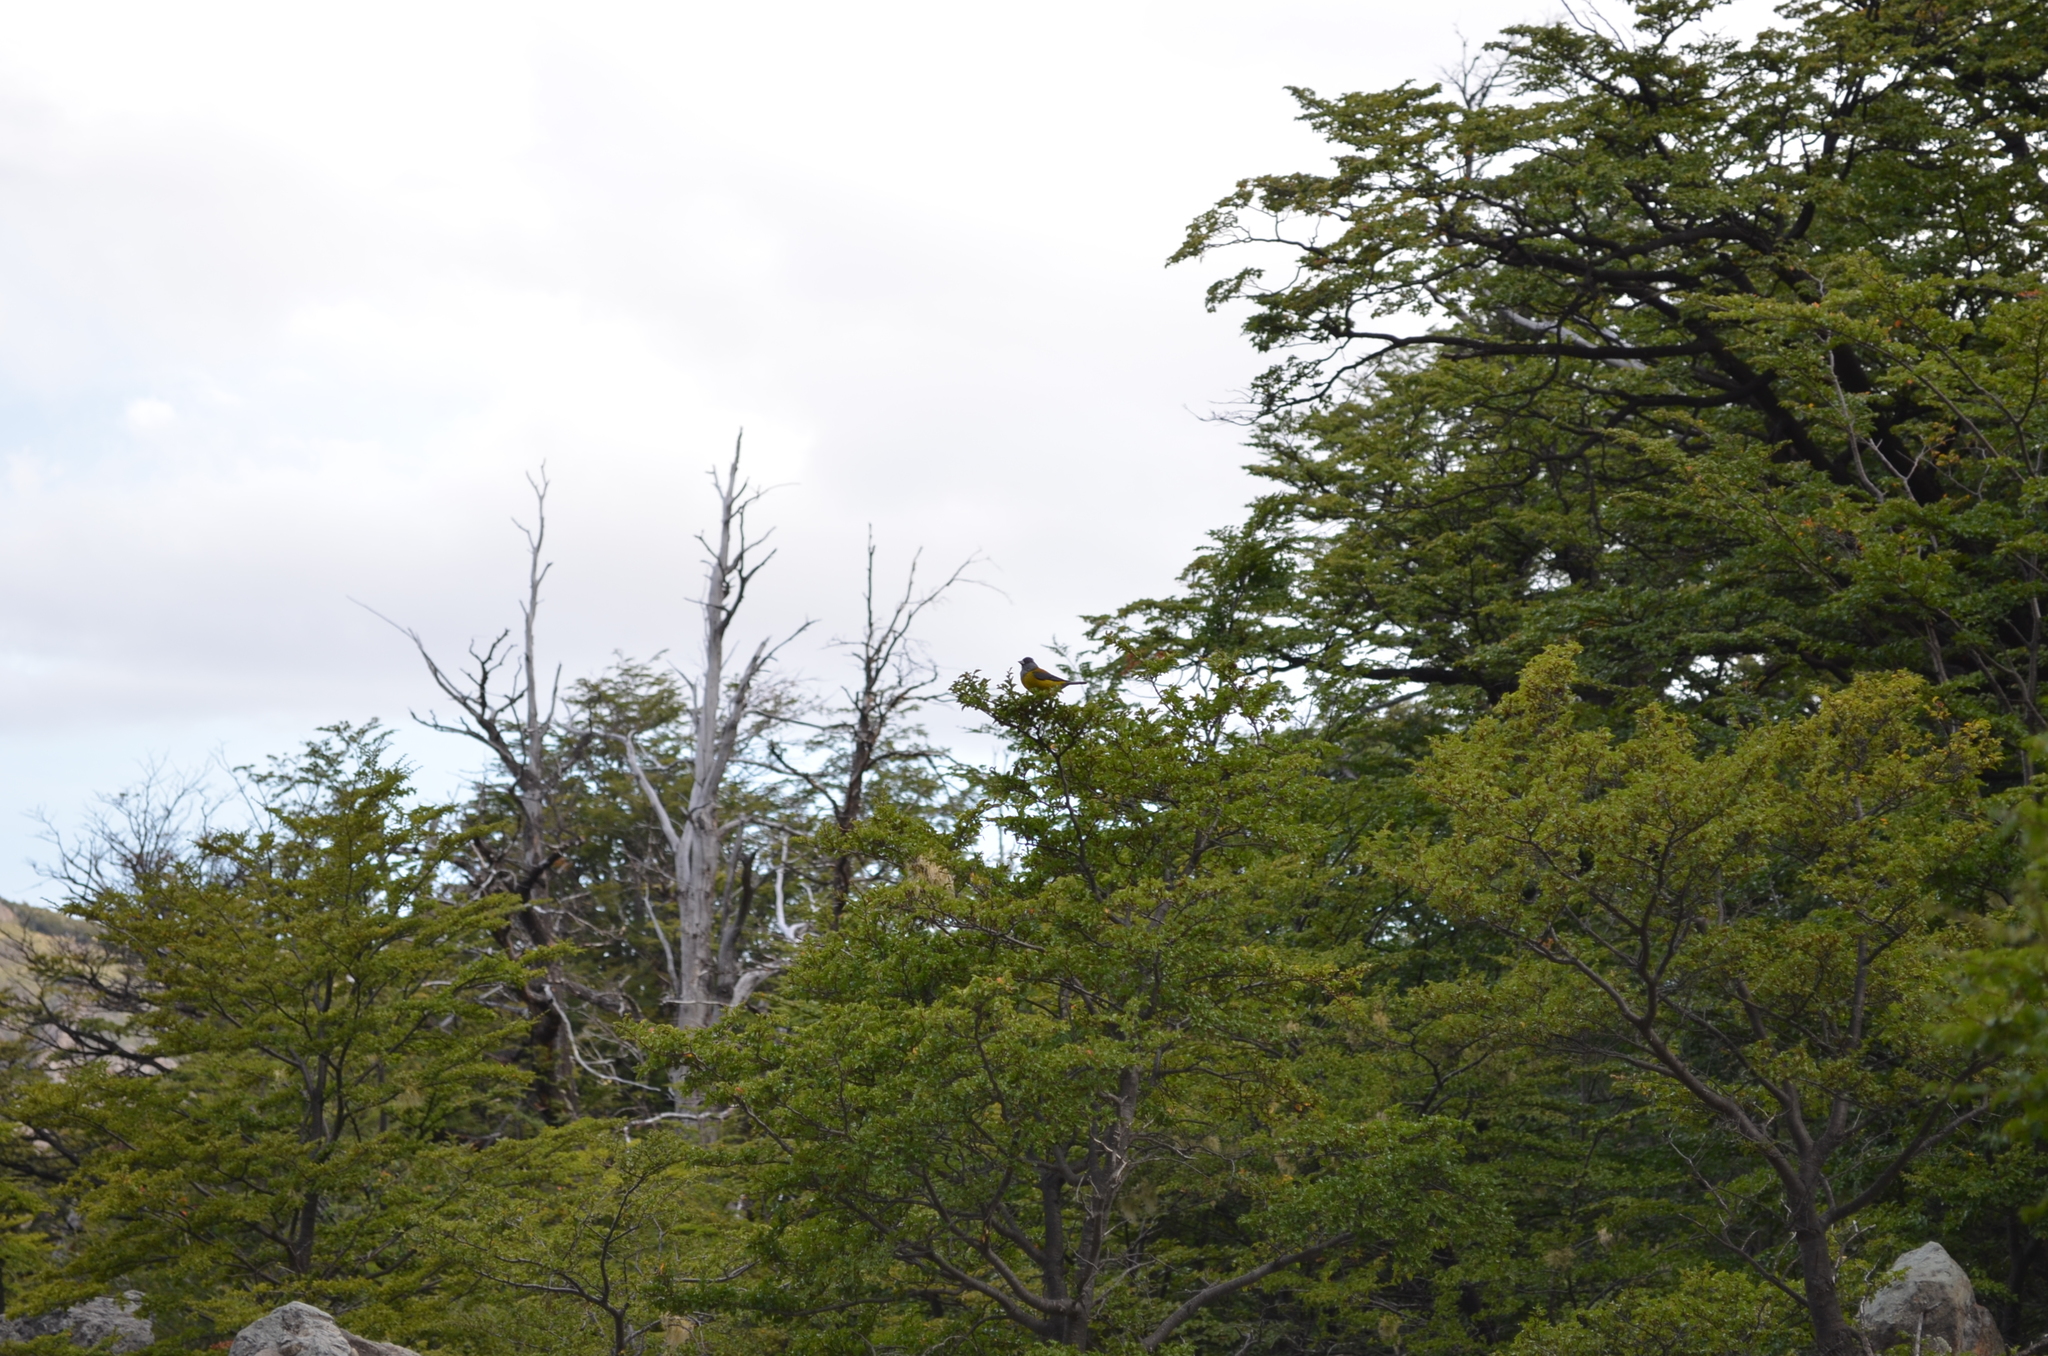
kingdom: Animalia
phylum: Chordata
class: Aves
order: Passeriformes
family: Thraupidae
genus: Phrygilus
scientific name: Phrygilus patagonicus
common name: Patagonian sierra finch
